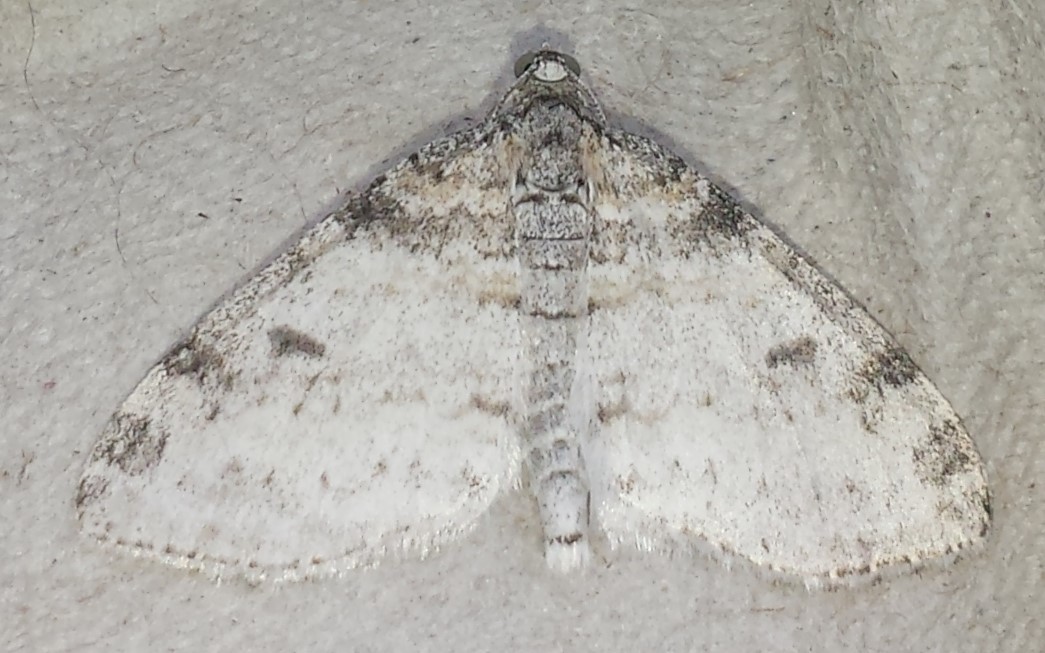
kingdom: Animalia
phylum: Arthropoda
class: Insecta
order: Lepidoptera
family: Geometridae
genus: Lobophora
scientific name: Lobophora nivigerata
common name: Powdered bigwing
